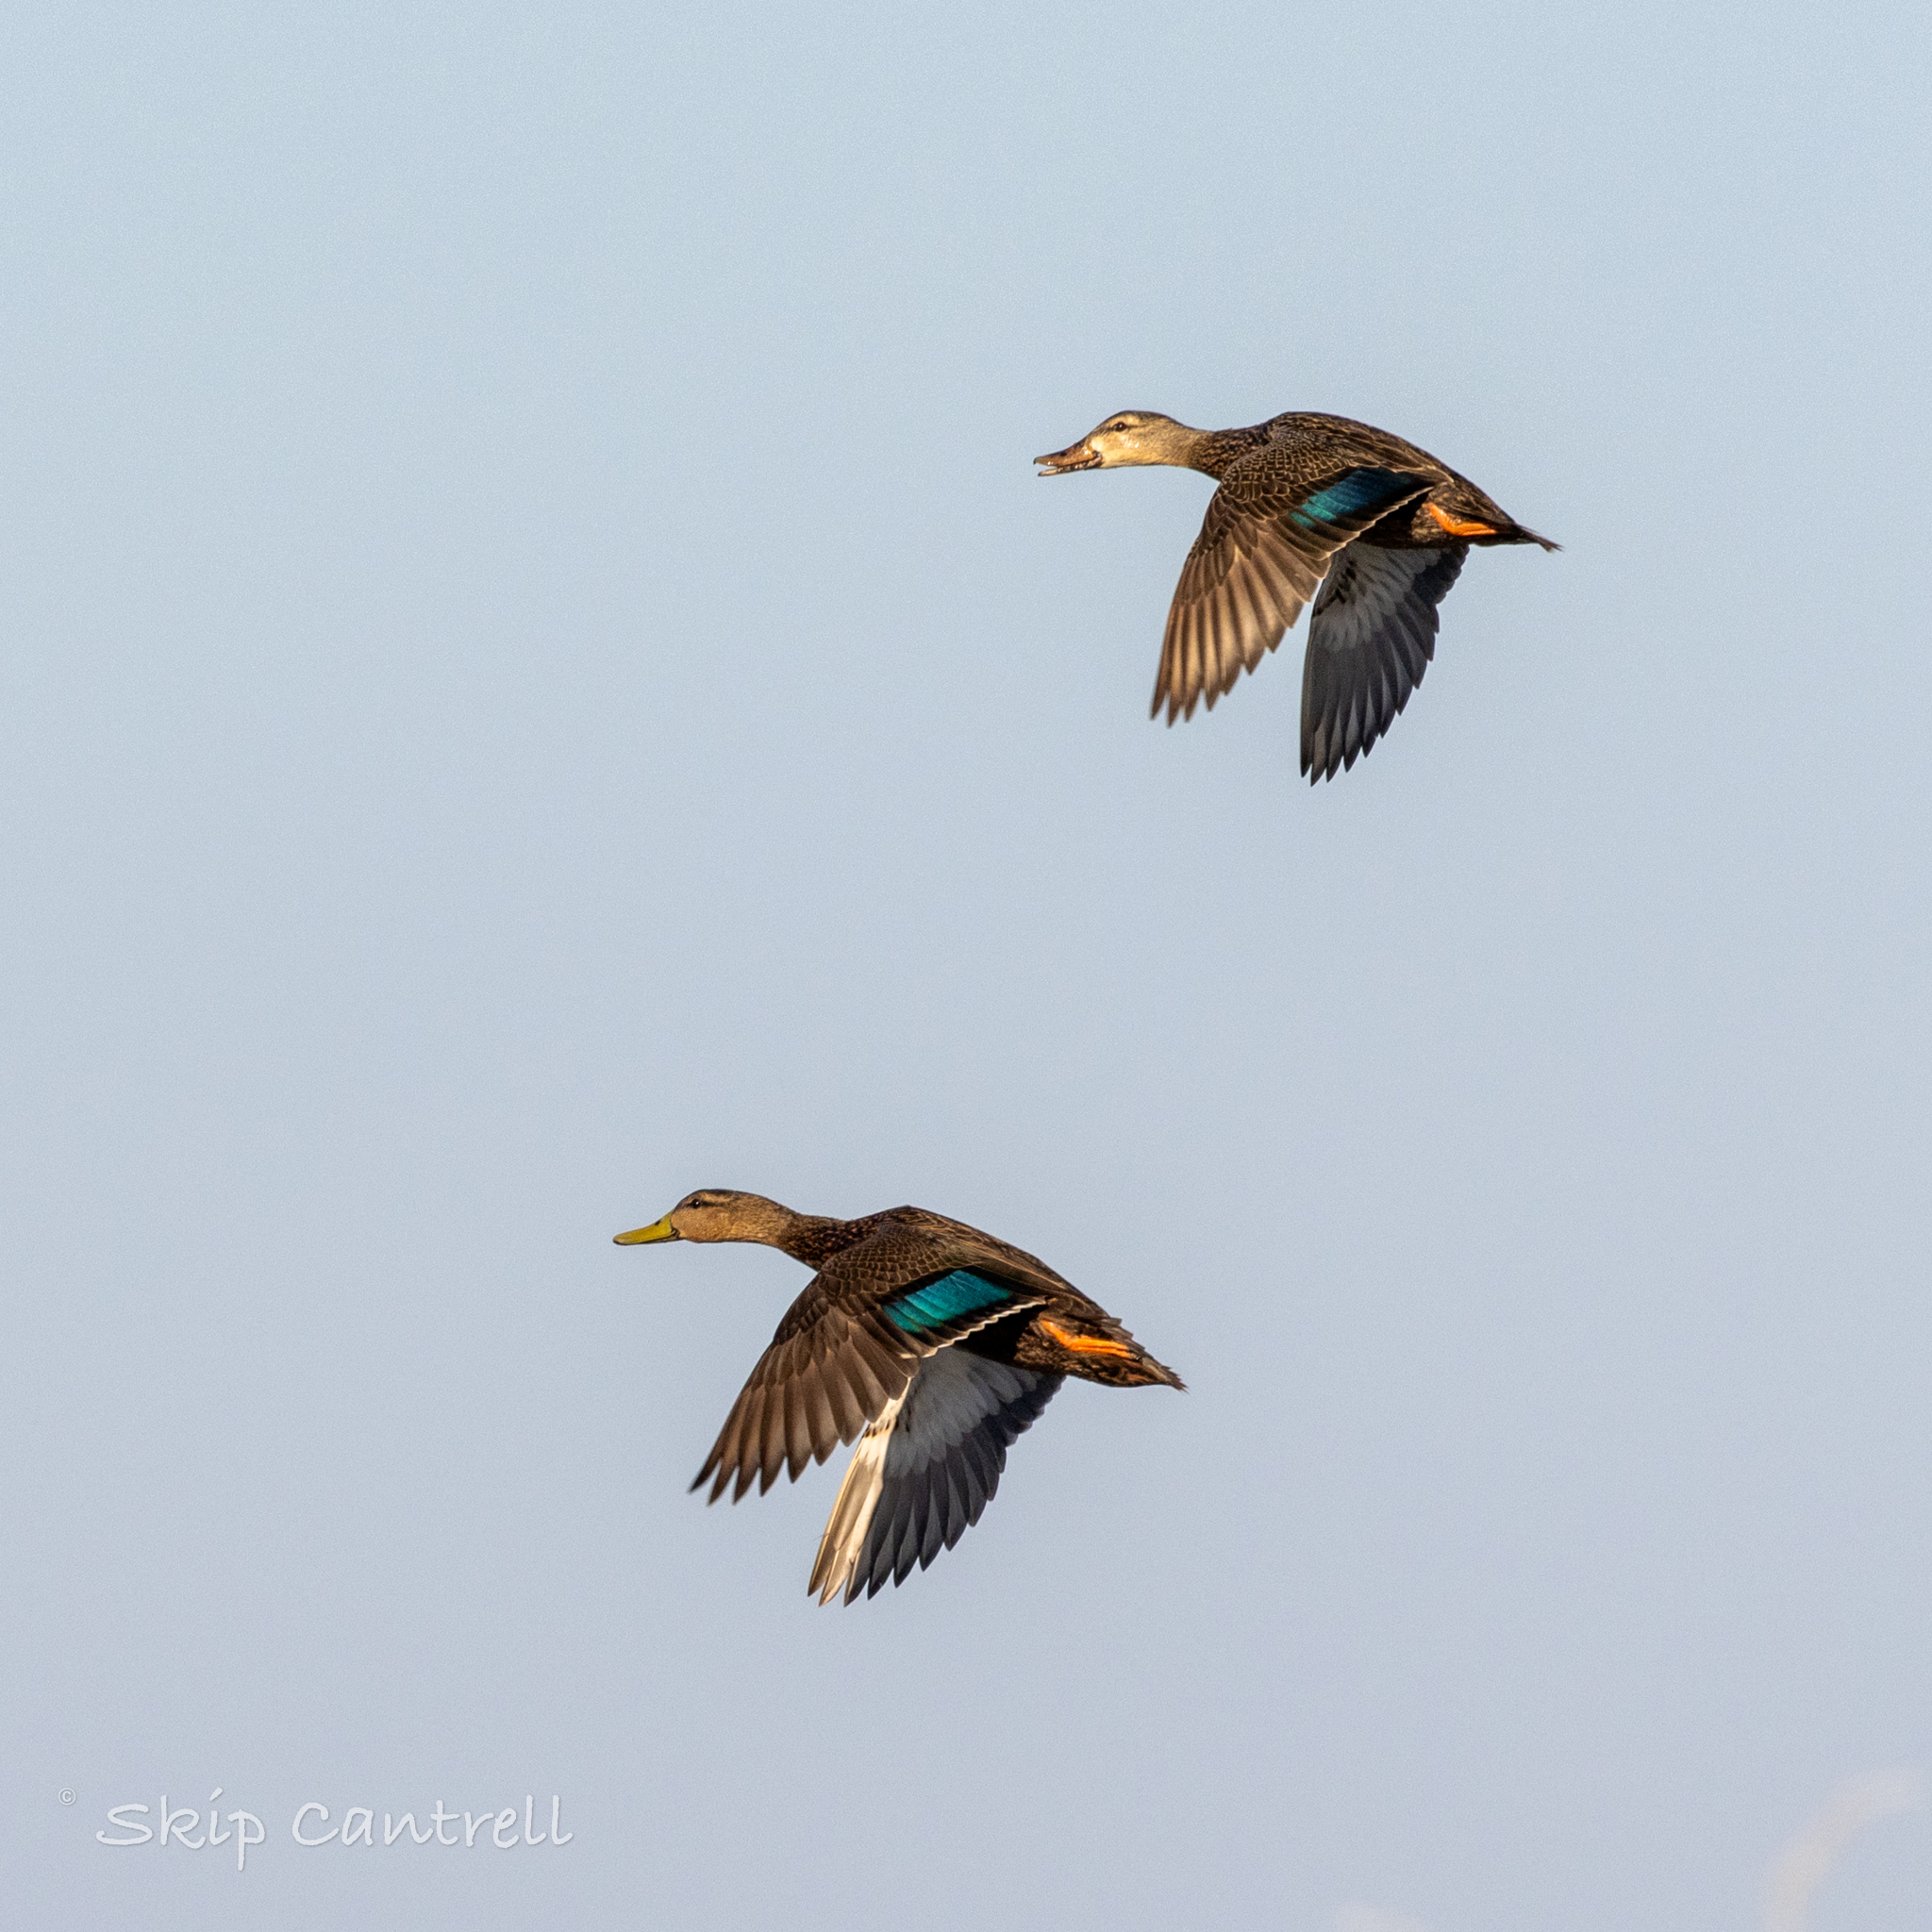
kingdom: Animalia
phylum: Chordata
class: Aves
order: Anseriformes
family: Anatidae
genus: Anas
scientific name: Anas fulvigula
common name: Mottled duck
